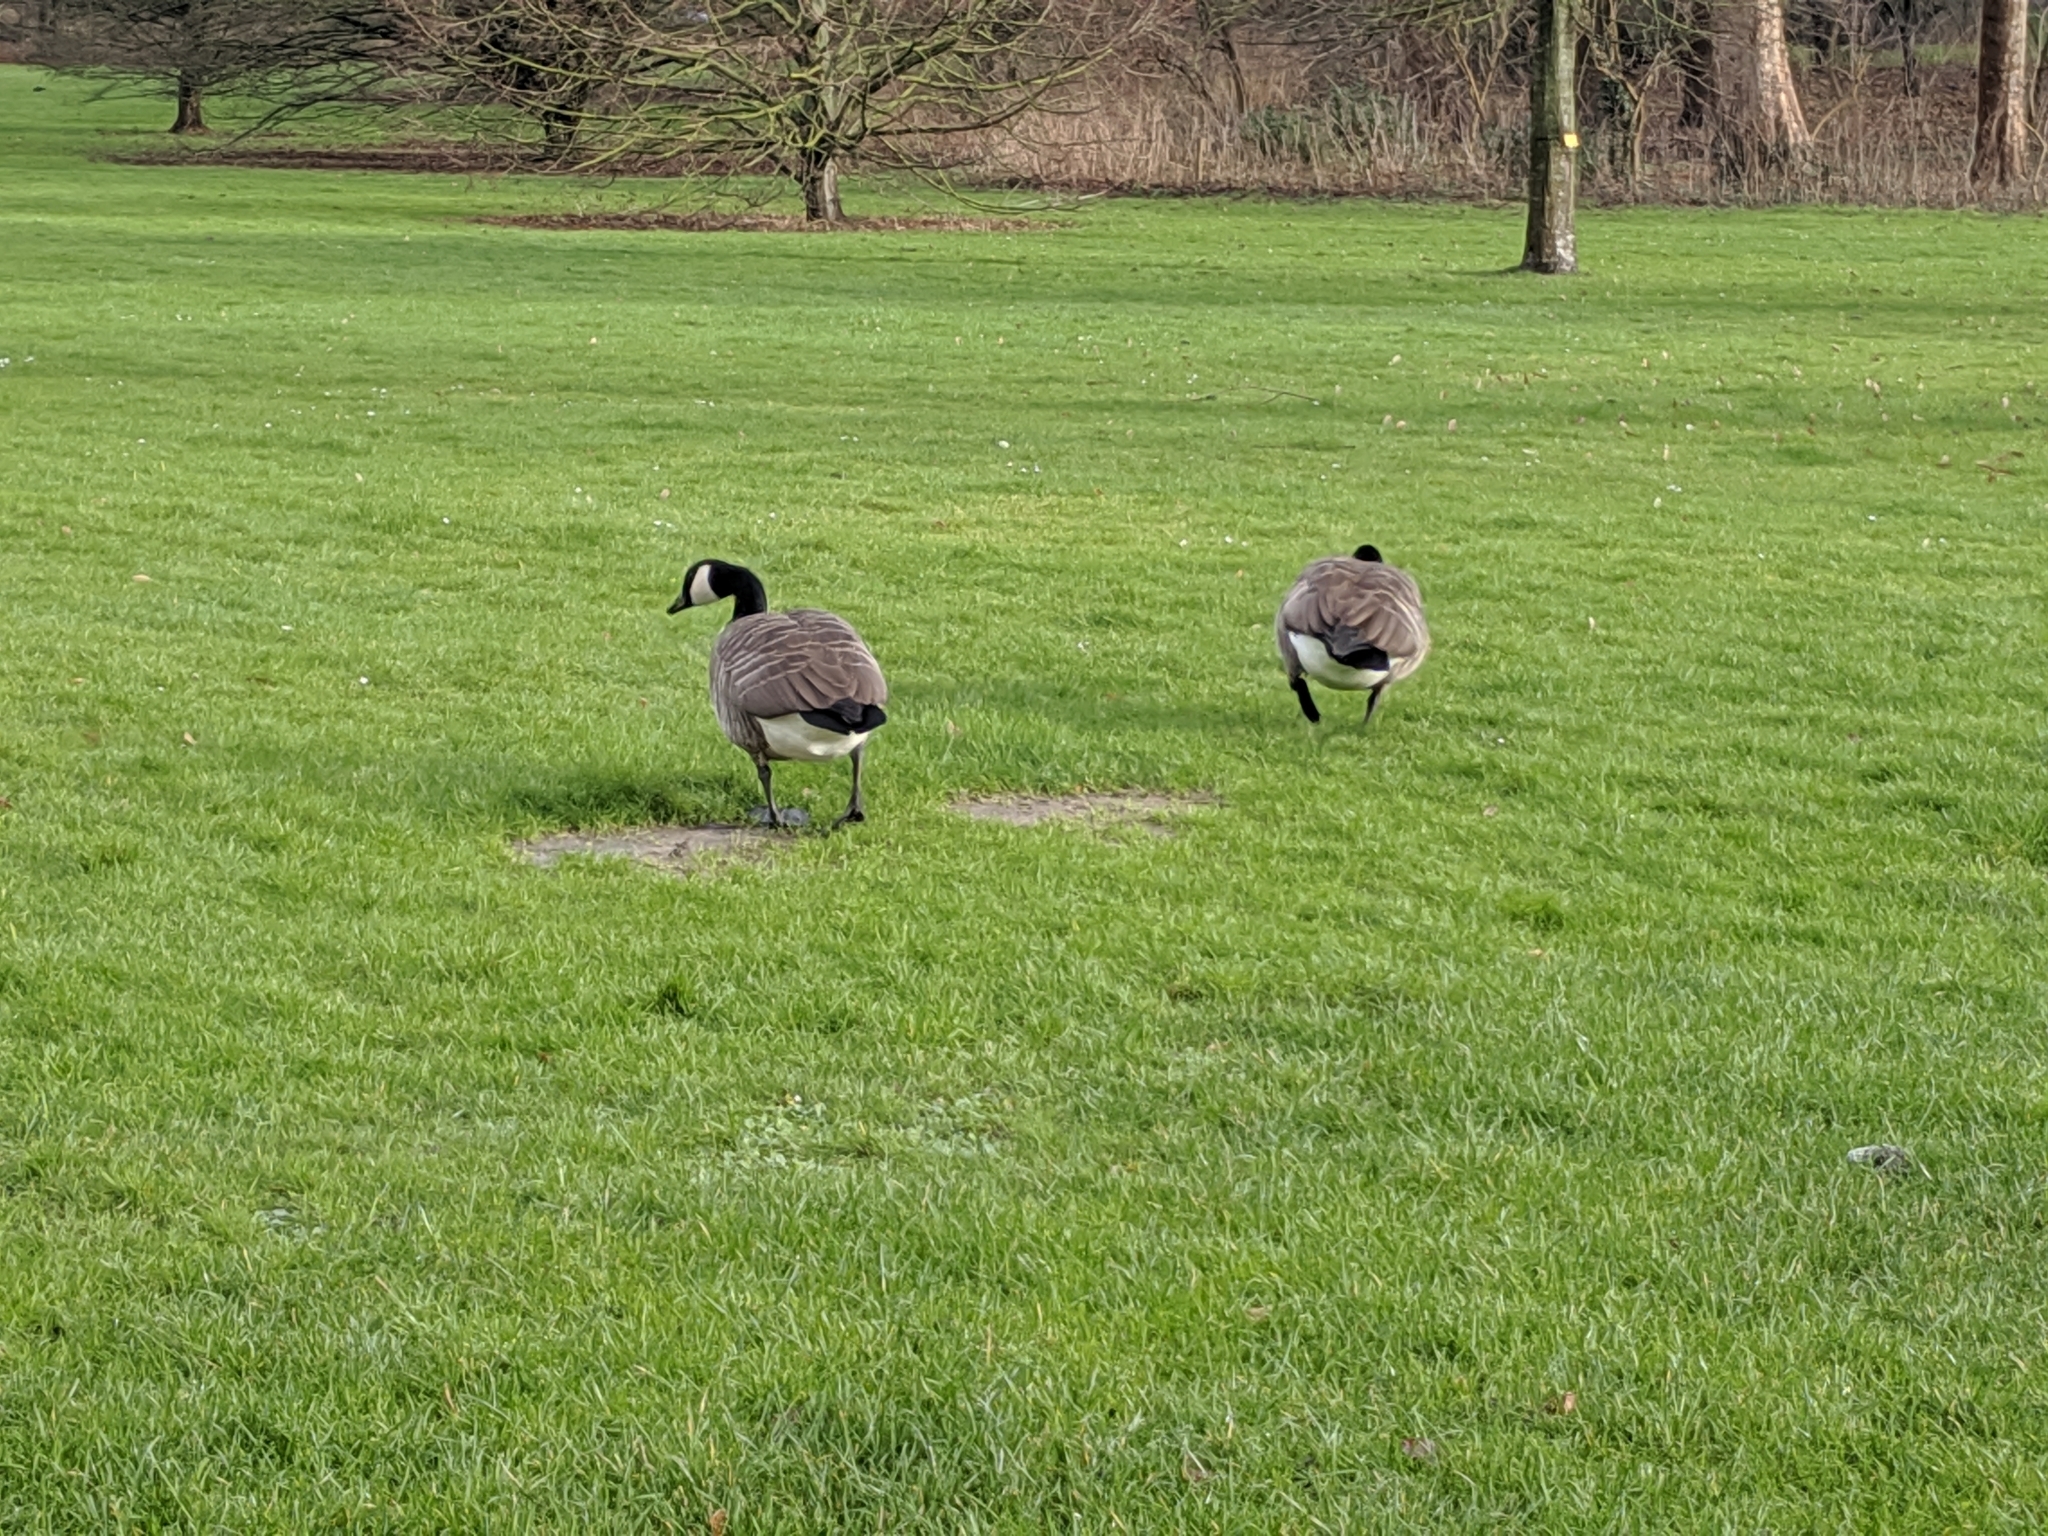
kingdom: Animalia
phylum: Chordata
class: Aves
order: Anseriformes
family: Anatidae
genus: Branta
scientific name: Branta canadensis
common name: Canada goose
